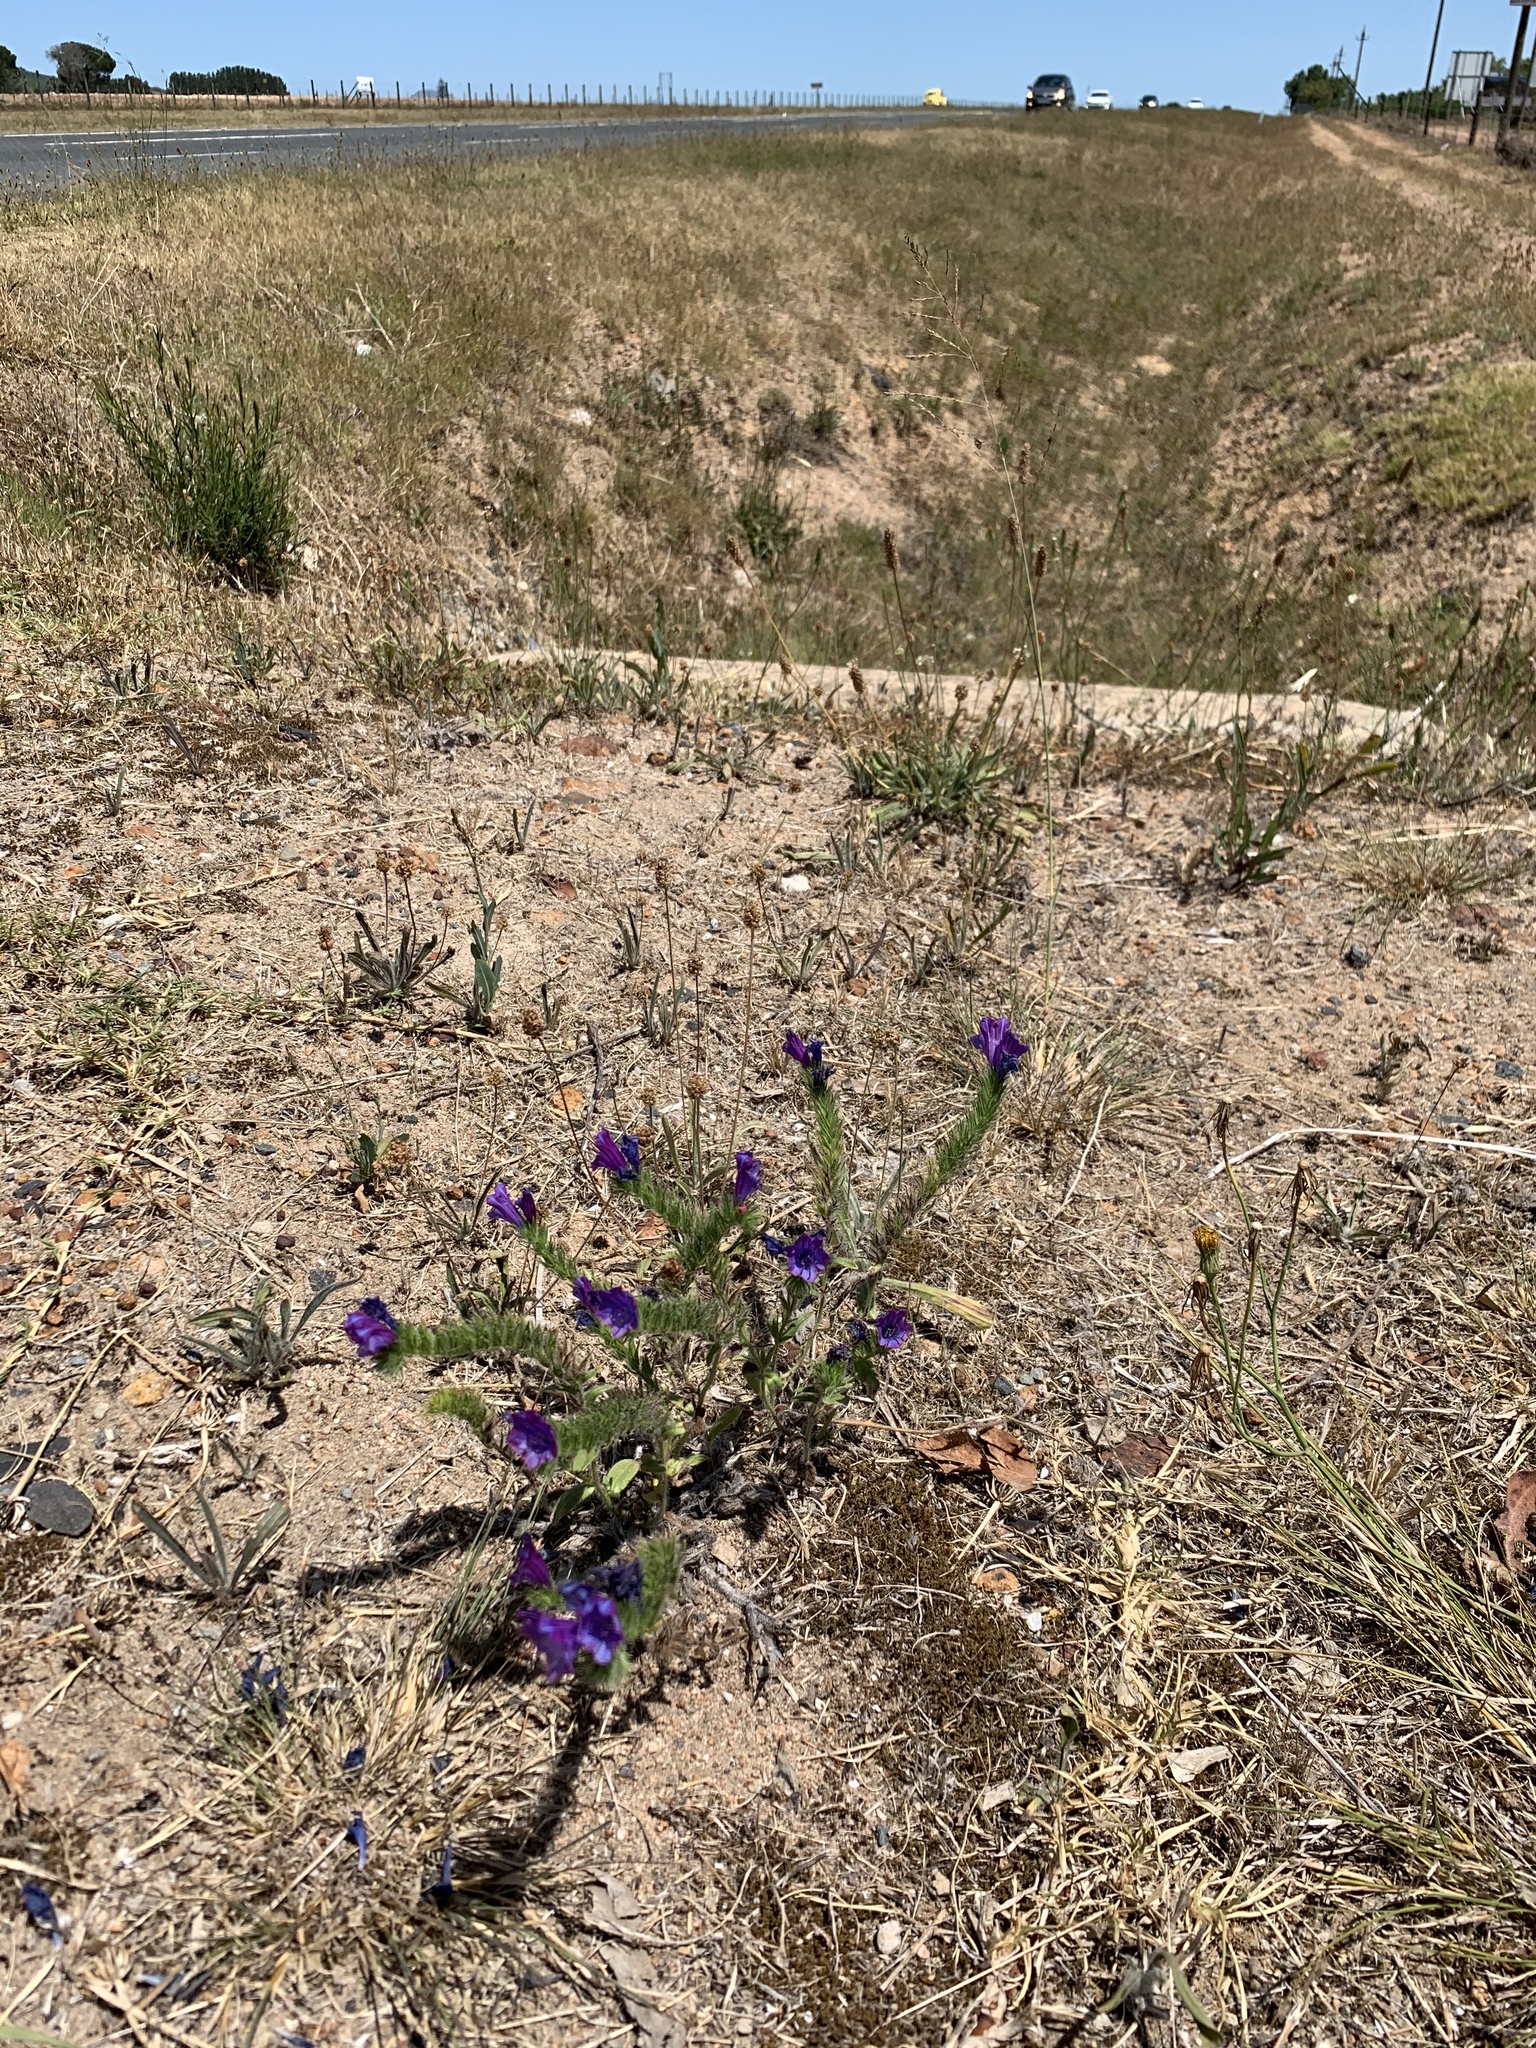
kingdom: Plantae
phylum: Tracheophyta
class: Magnoliopsida
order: Boraginales
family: Boraginaceae
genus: Echium
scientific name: Echium plantagineum
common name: Purple viper's-bugloss
